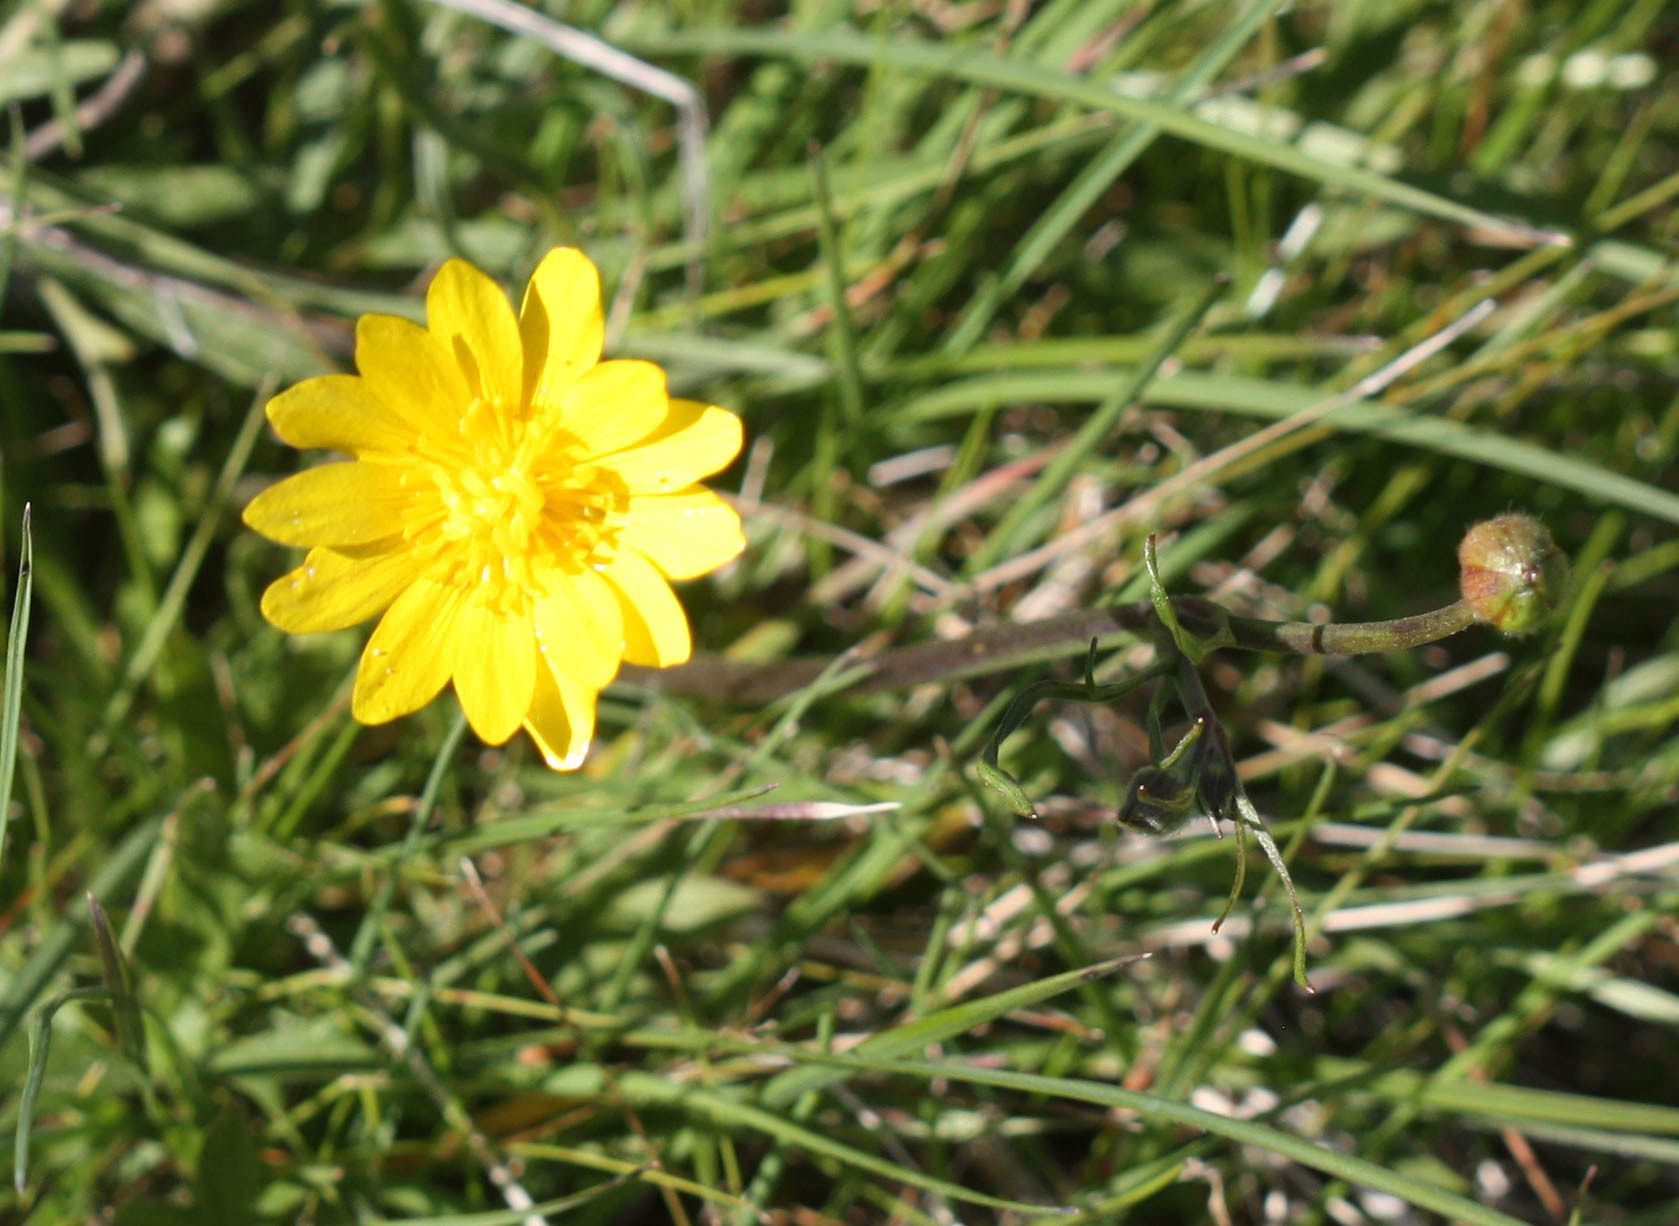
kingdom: Plantae
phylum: Tracheophyta
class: Magnoliopsida
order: Ranunculales
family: Ranunculaceae
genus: Ranunculus
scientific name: Ranunculus californicus
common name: California buttercup
